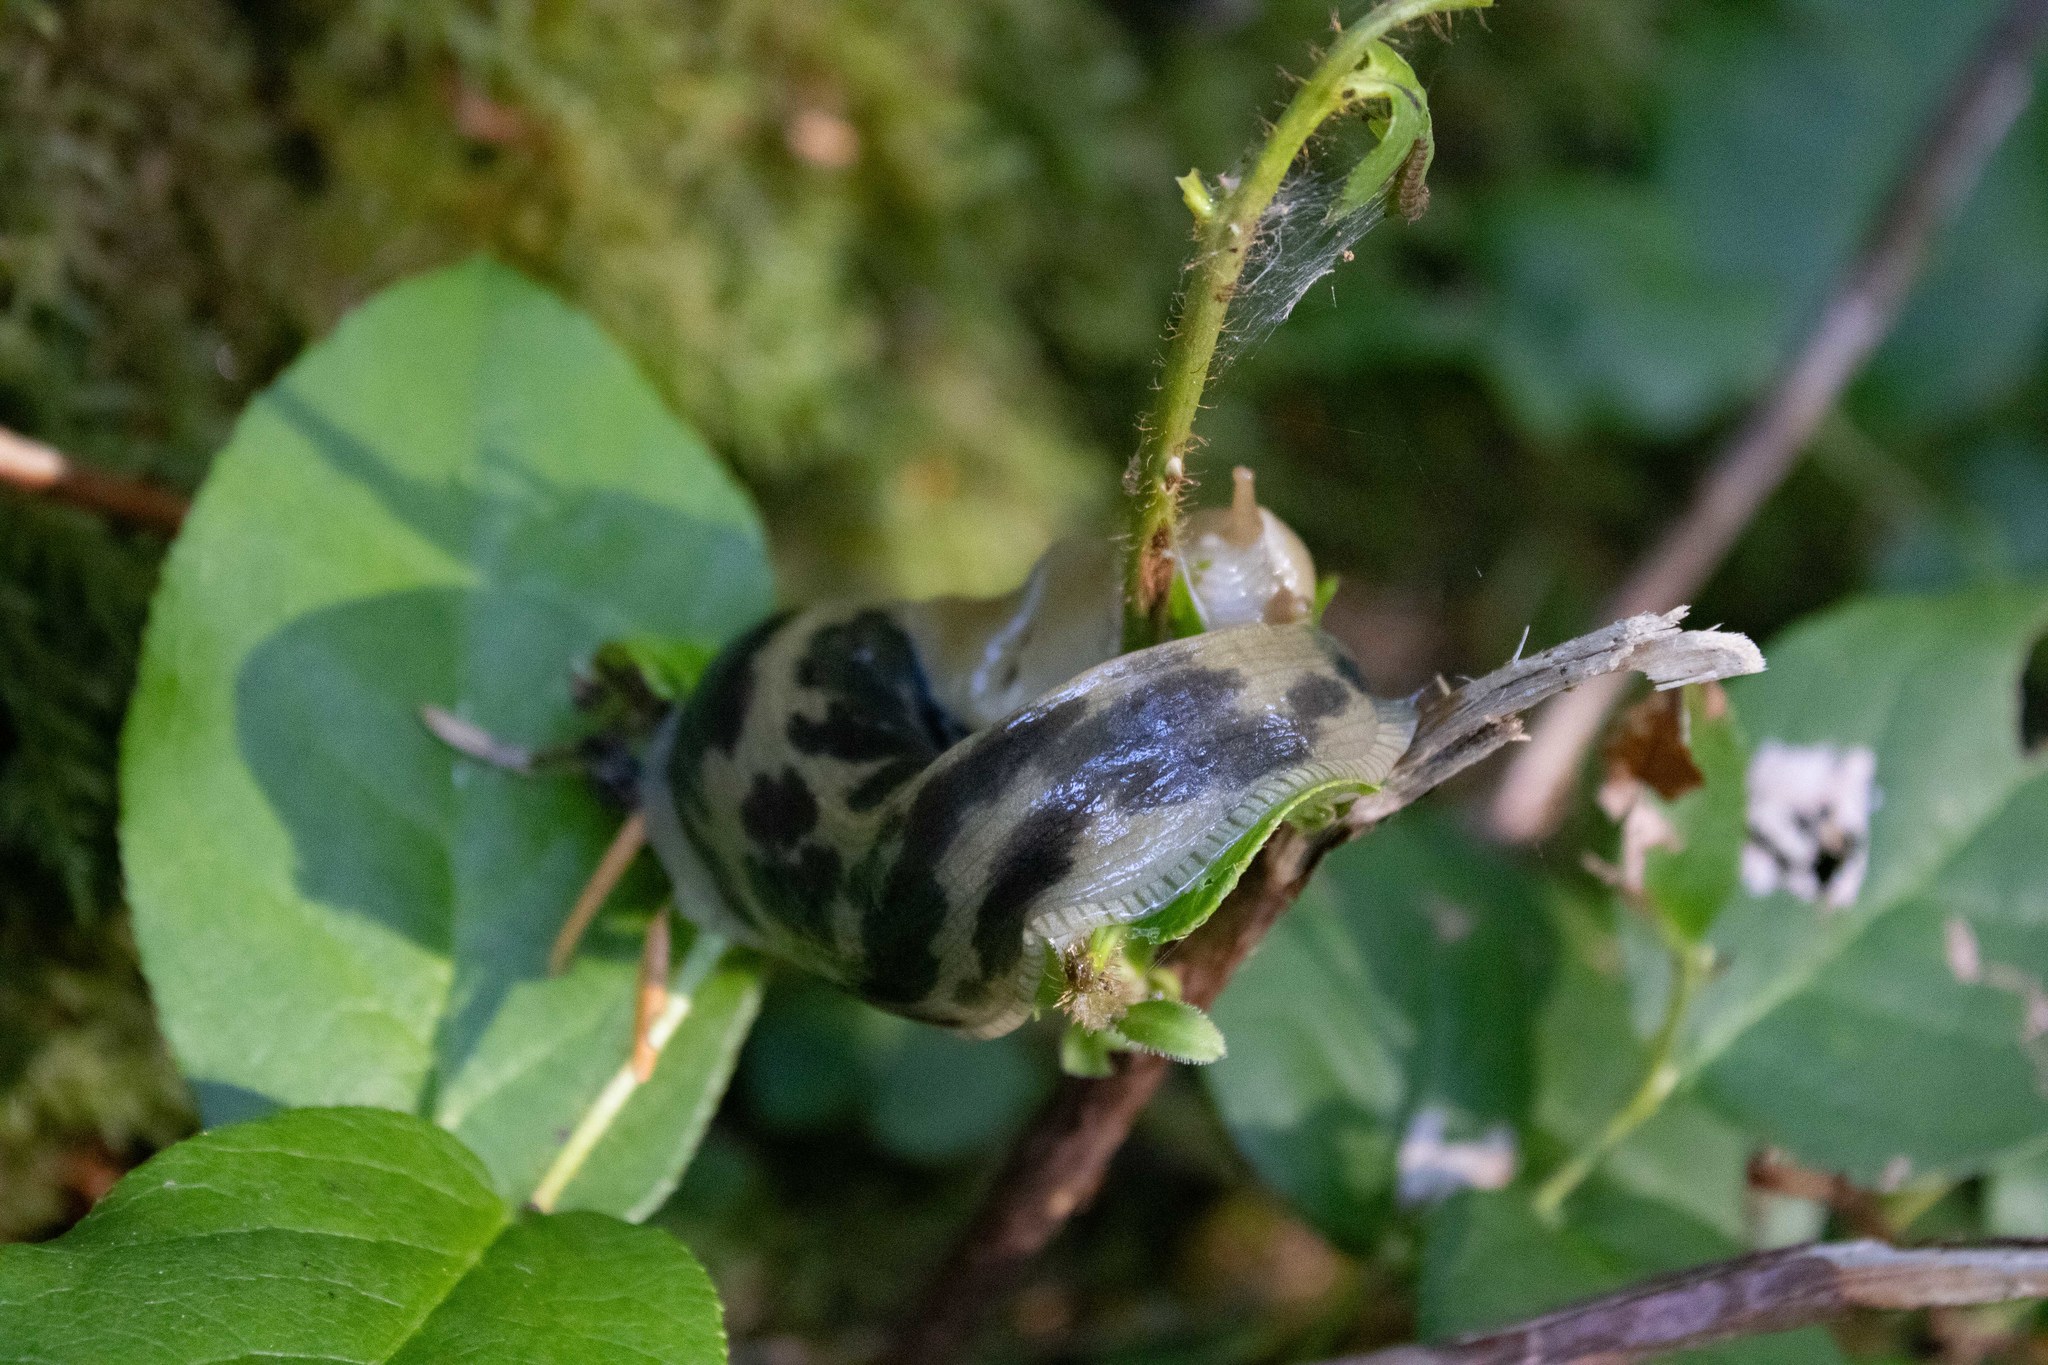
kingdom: Animalia
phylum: Mollusca
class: Gastropoda
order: Stylommatophora
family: Ariolimacidae
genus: Ariolimax
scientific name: Ariolimax columbianus
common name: Pacific banana slug
